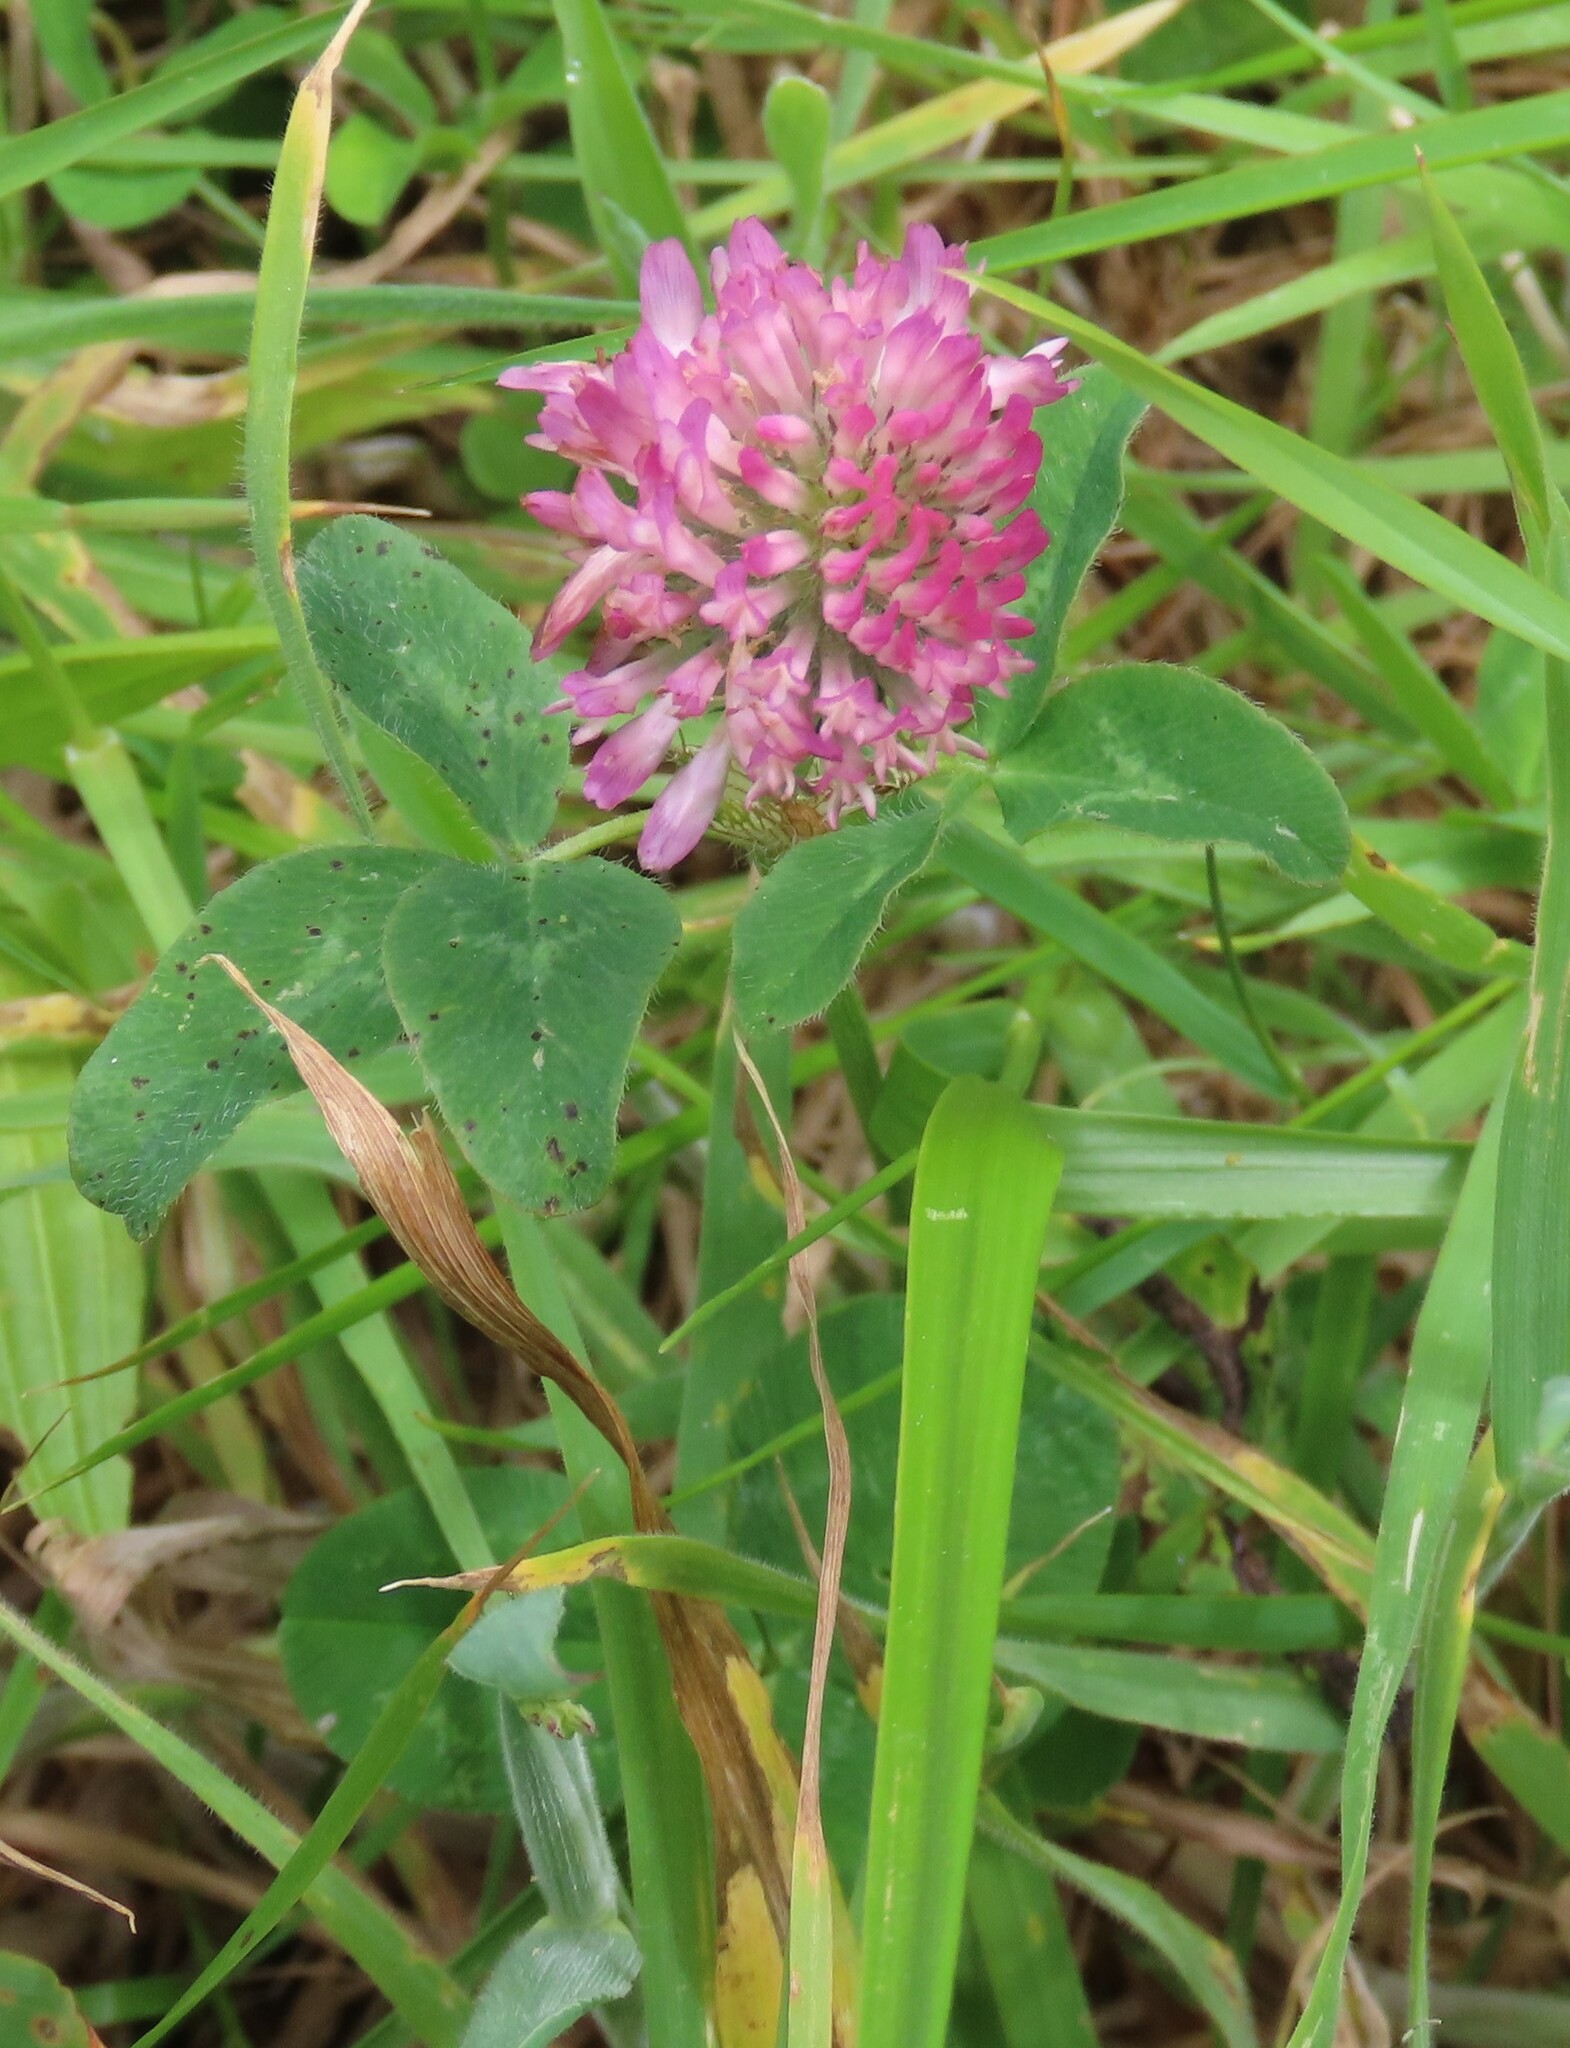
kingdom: Plantae
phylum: Tracheophyta
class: Magnoliopsida
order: Fabales
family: Fabaceae
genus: Trifolium
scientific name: Trifolium pratense
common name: Red clover
